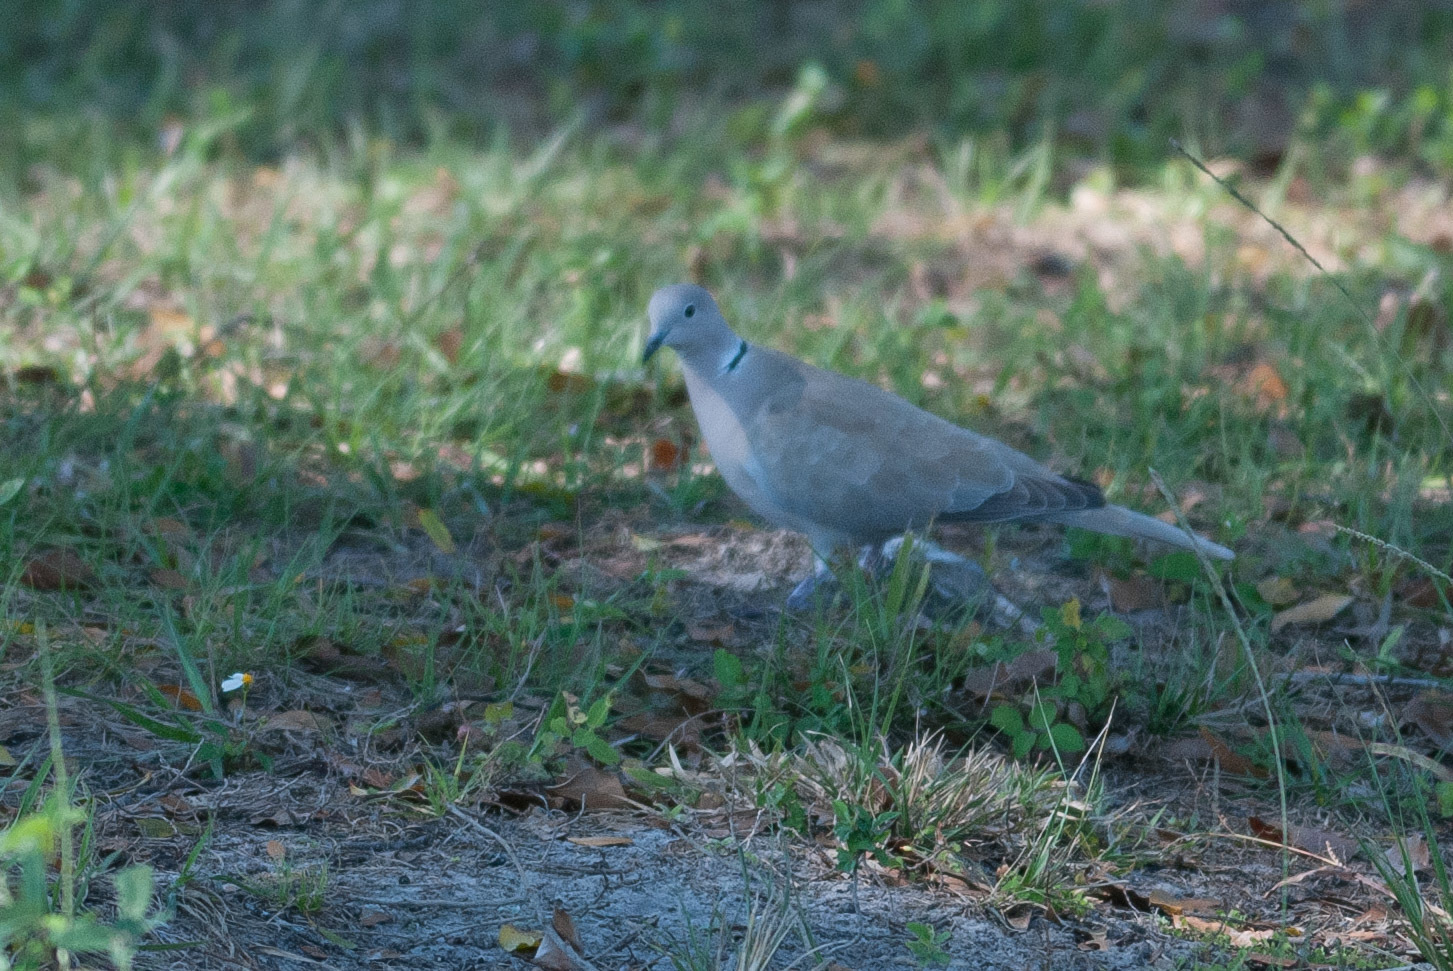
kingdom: Animalia
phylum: Chordata
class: Aves
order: Columbiformes
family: Columbidae
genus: Streptopelia
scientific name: Streptopelia decaocto
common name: Eurasian collared dove
